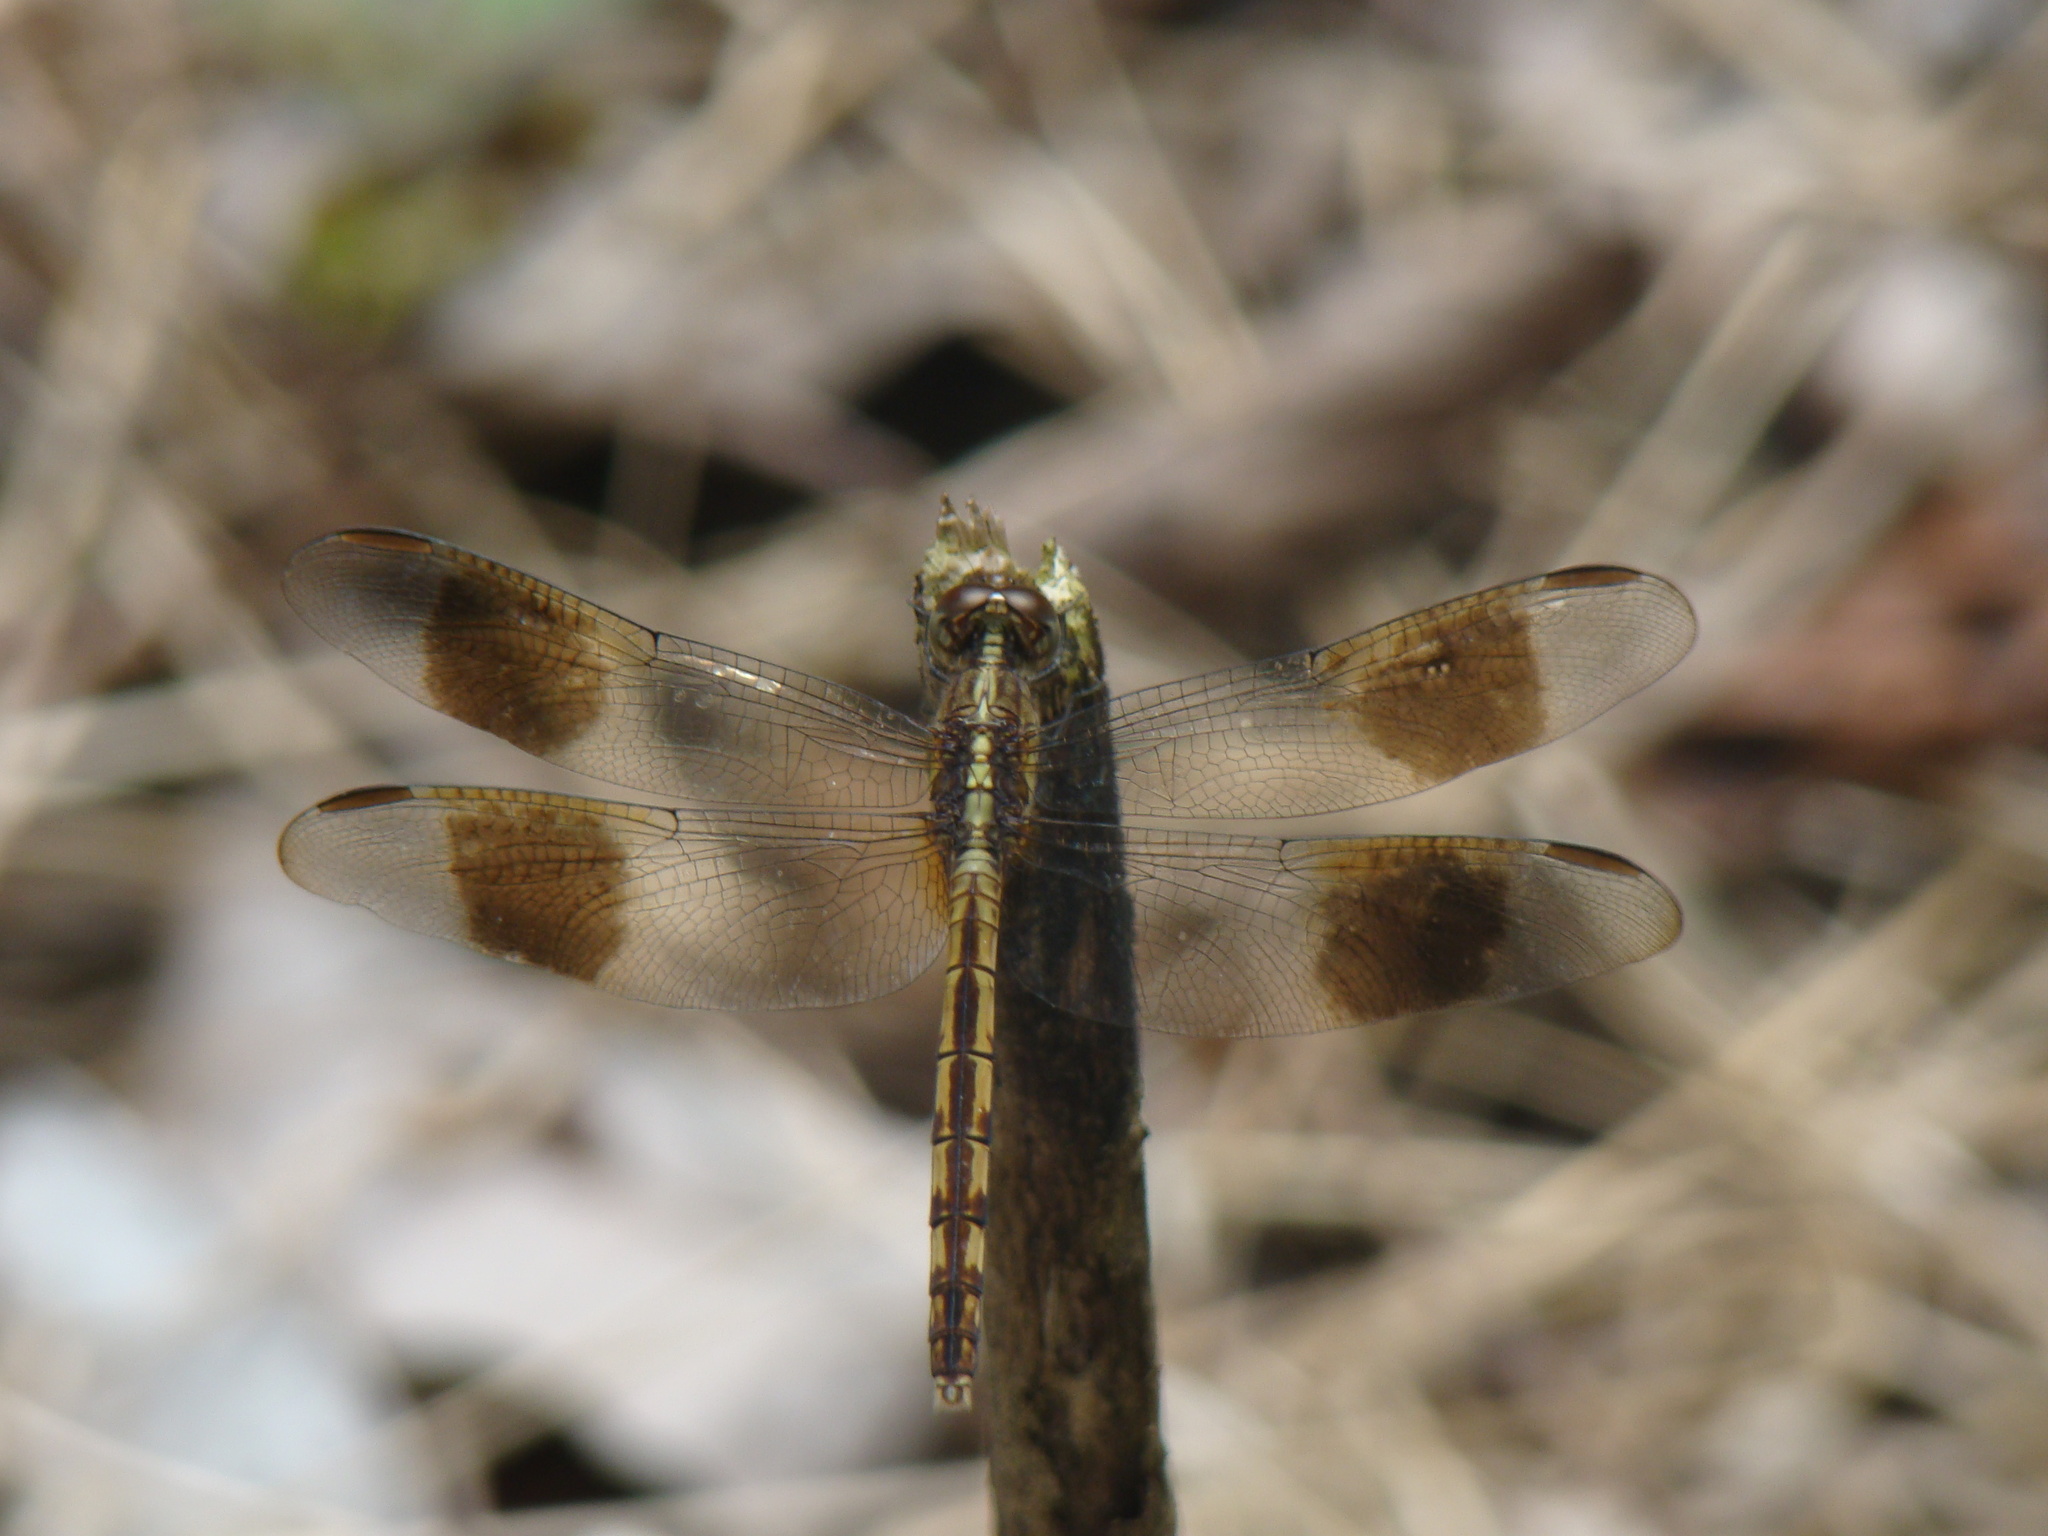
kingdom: Animalia
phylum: Arthropoda
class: Insecta
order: Odonata
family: Libellulidae
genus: Erythrodiplax
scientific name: Erythrodiplax umbrata
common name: Band-winged dragonlet
